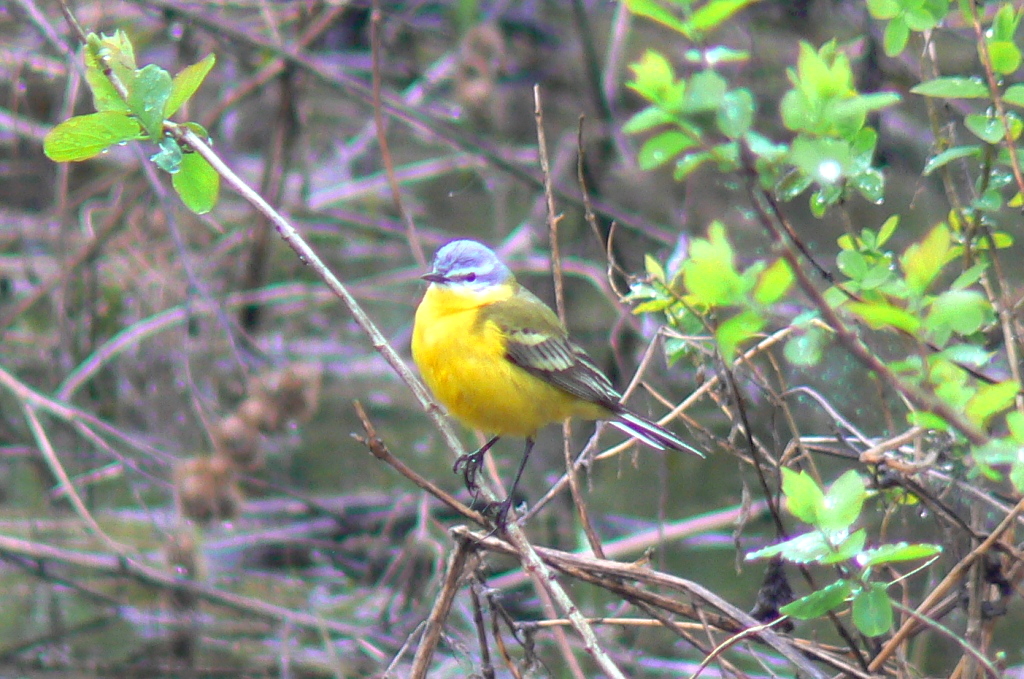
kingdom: Animalia
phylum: Chordata
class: Aves
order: Passeriformes
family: Motacillidae
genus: Motacilla
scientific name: Motacilla flava
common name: Western yellow wagtail
